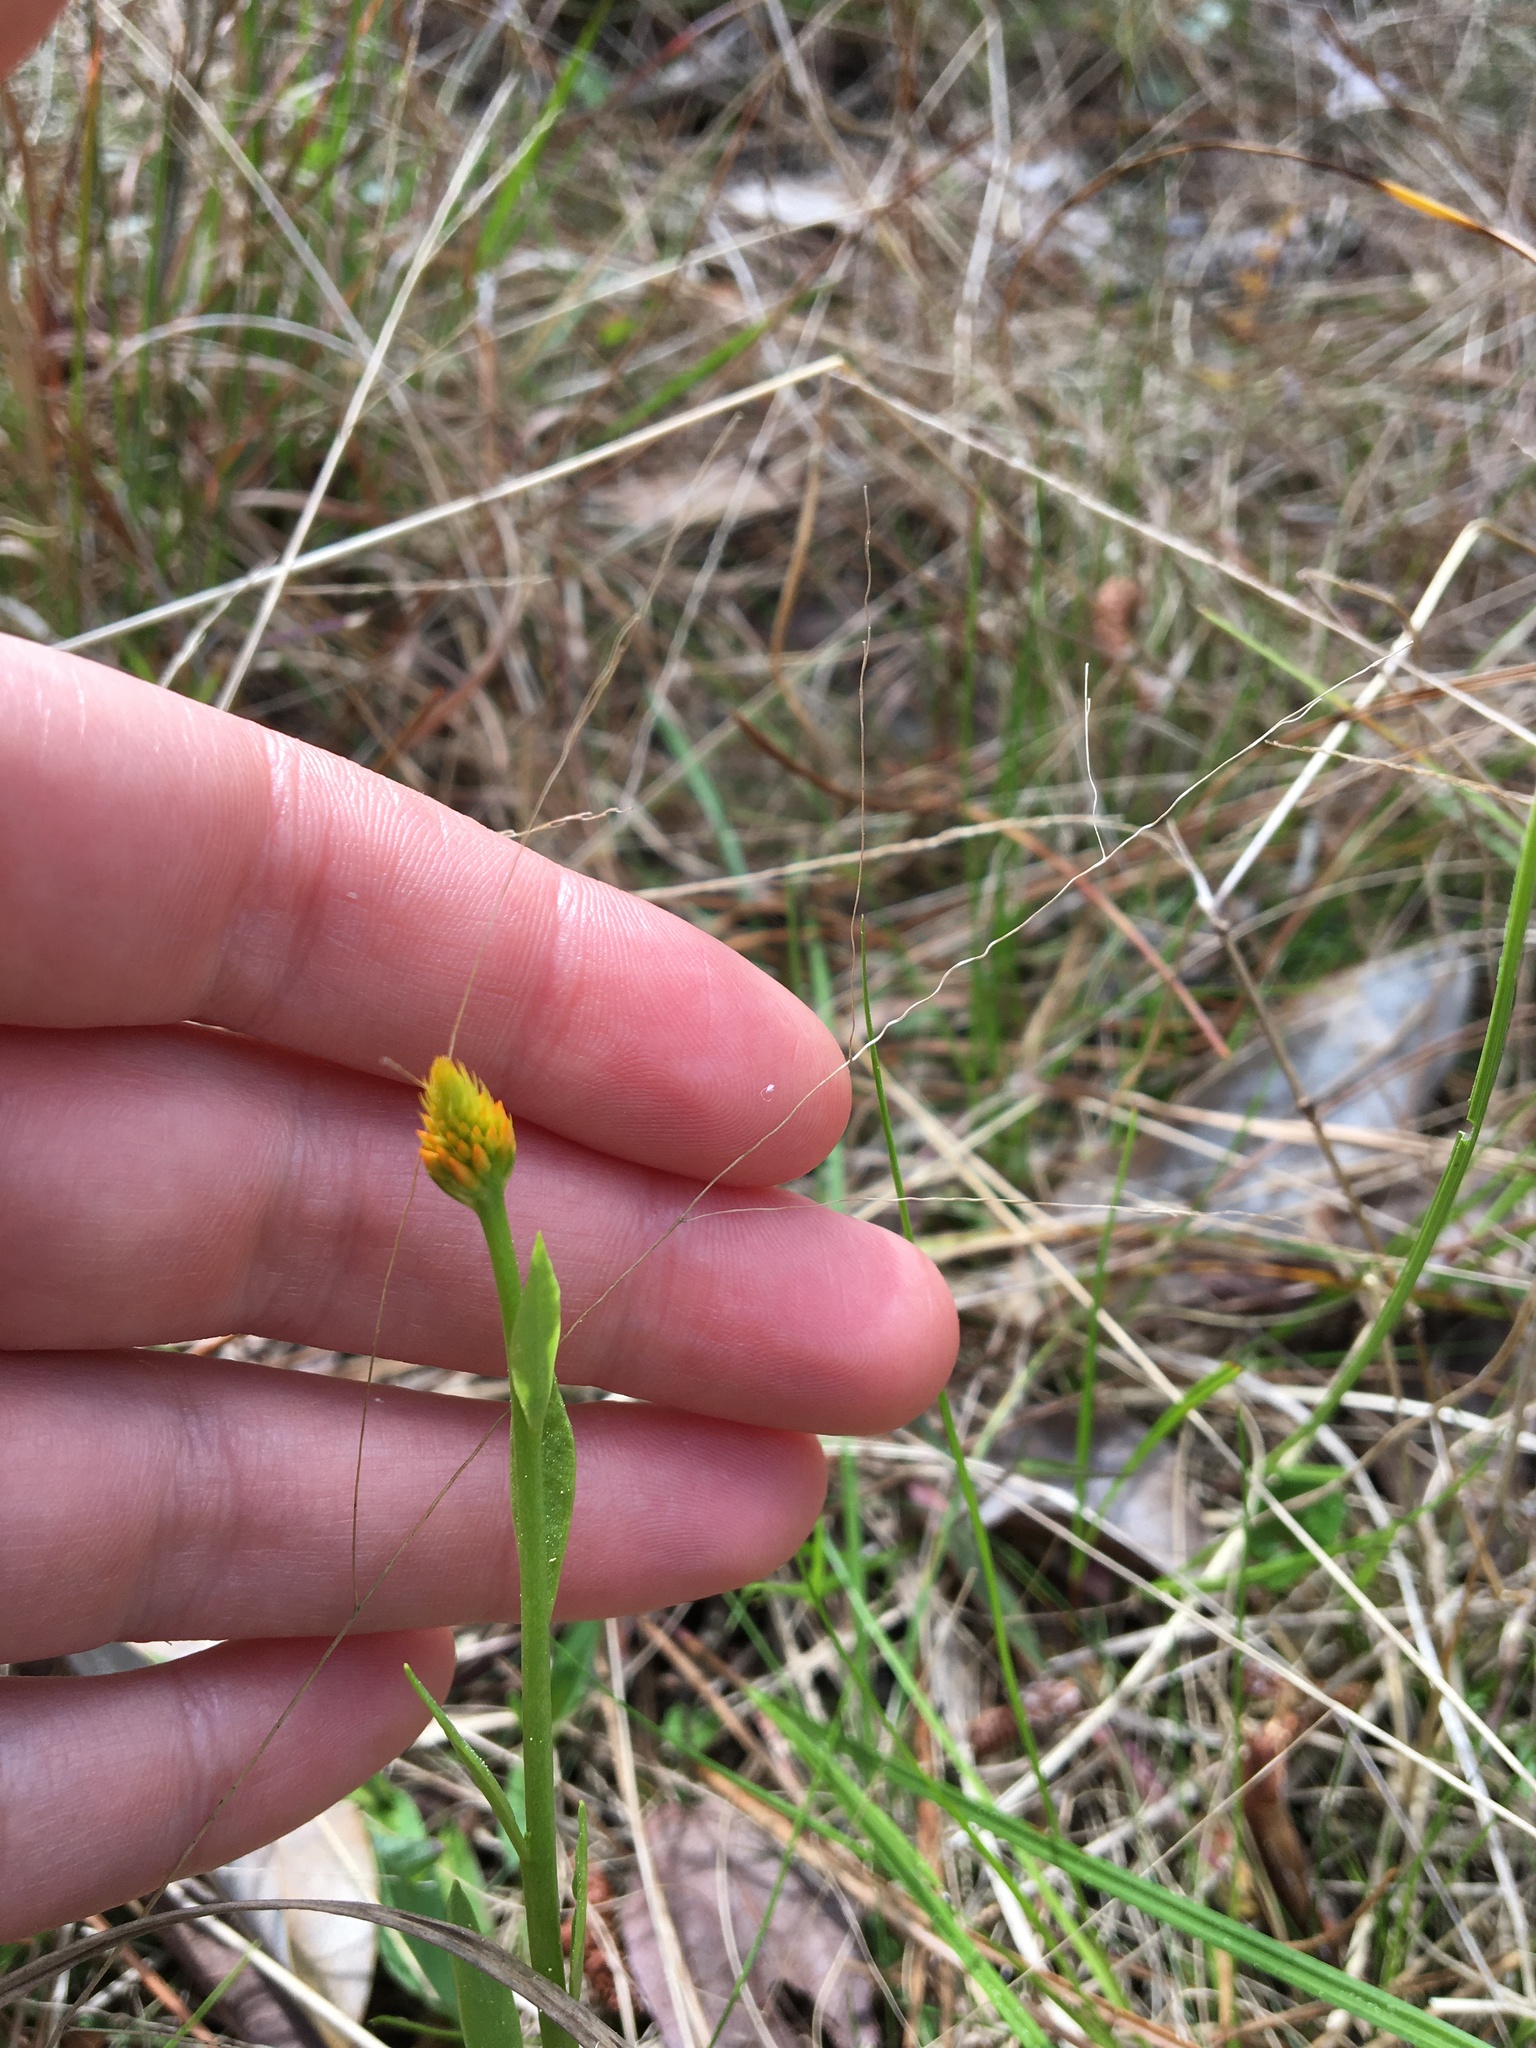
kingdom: Plantae
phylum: Tracheophyta
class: Magnoliopsida
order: Fabales
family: Polygalaceae
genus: Polygala
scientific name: Polygala lutea
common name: Orange milkwort
